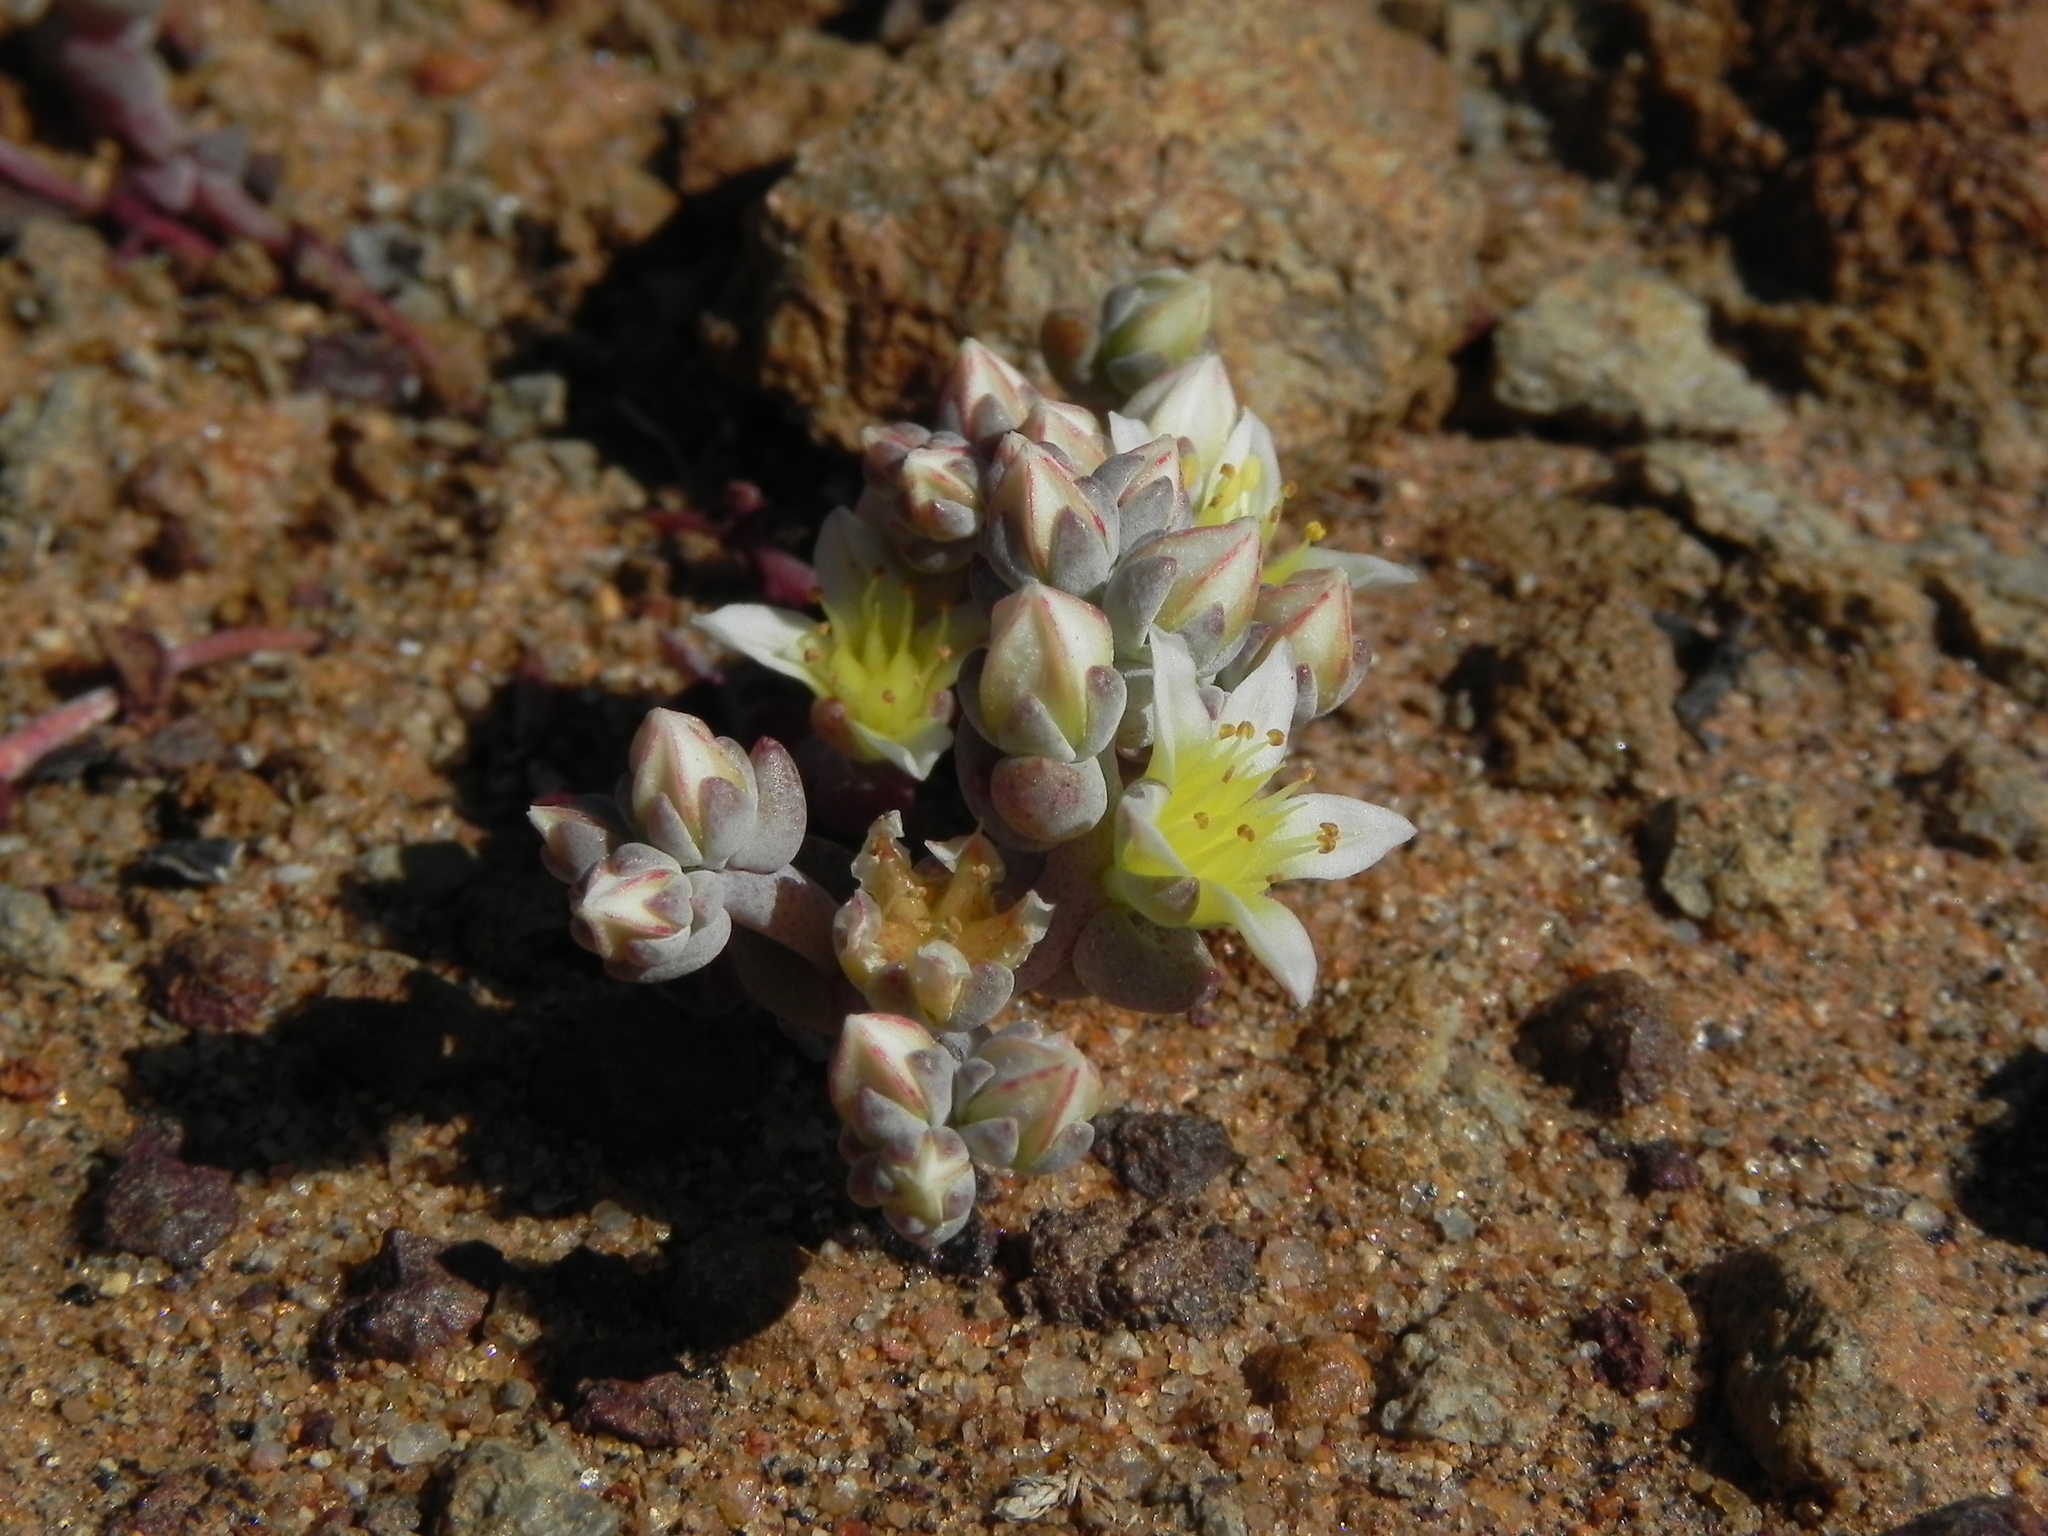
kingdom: Plantae
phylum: Tracheophyta
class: Magnoliopsida
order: Saxifragales
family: Crassulaceae
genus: Dudleya
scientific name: Dudleya blochmaniae
